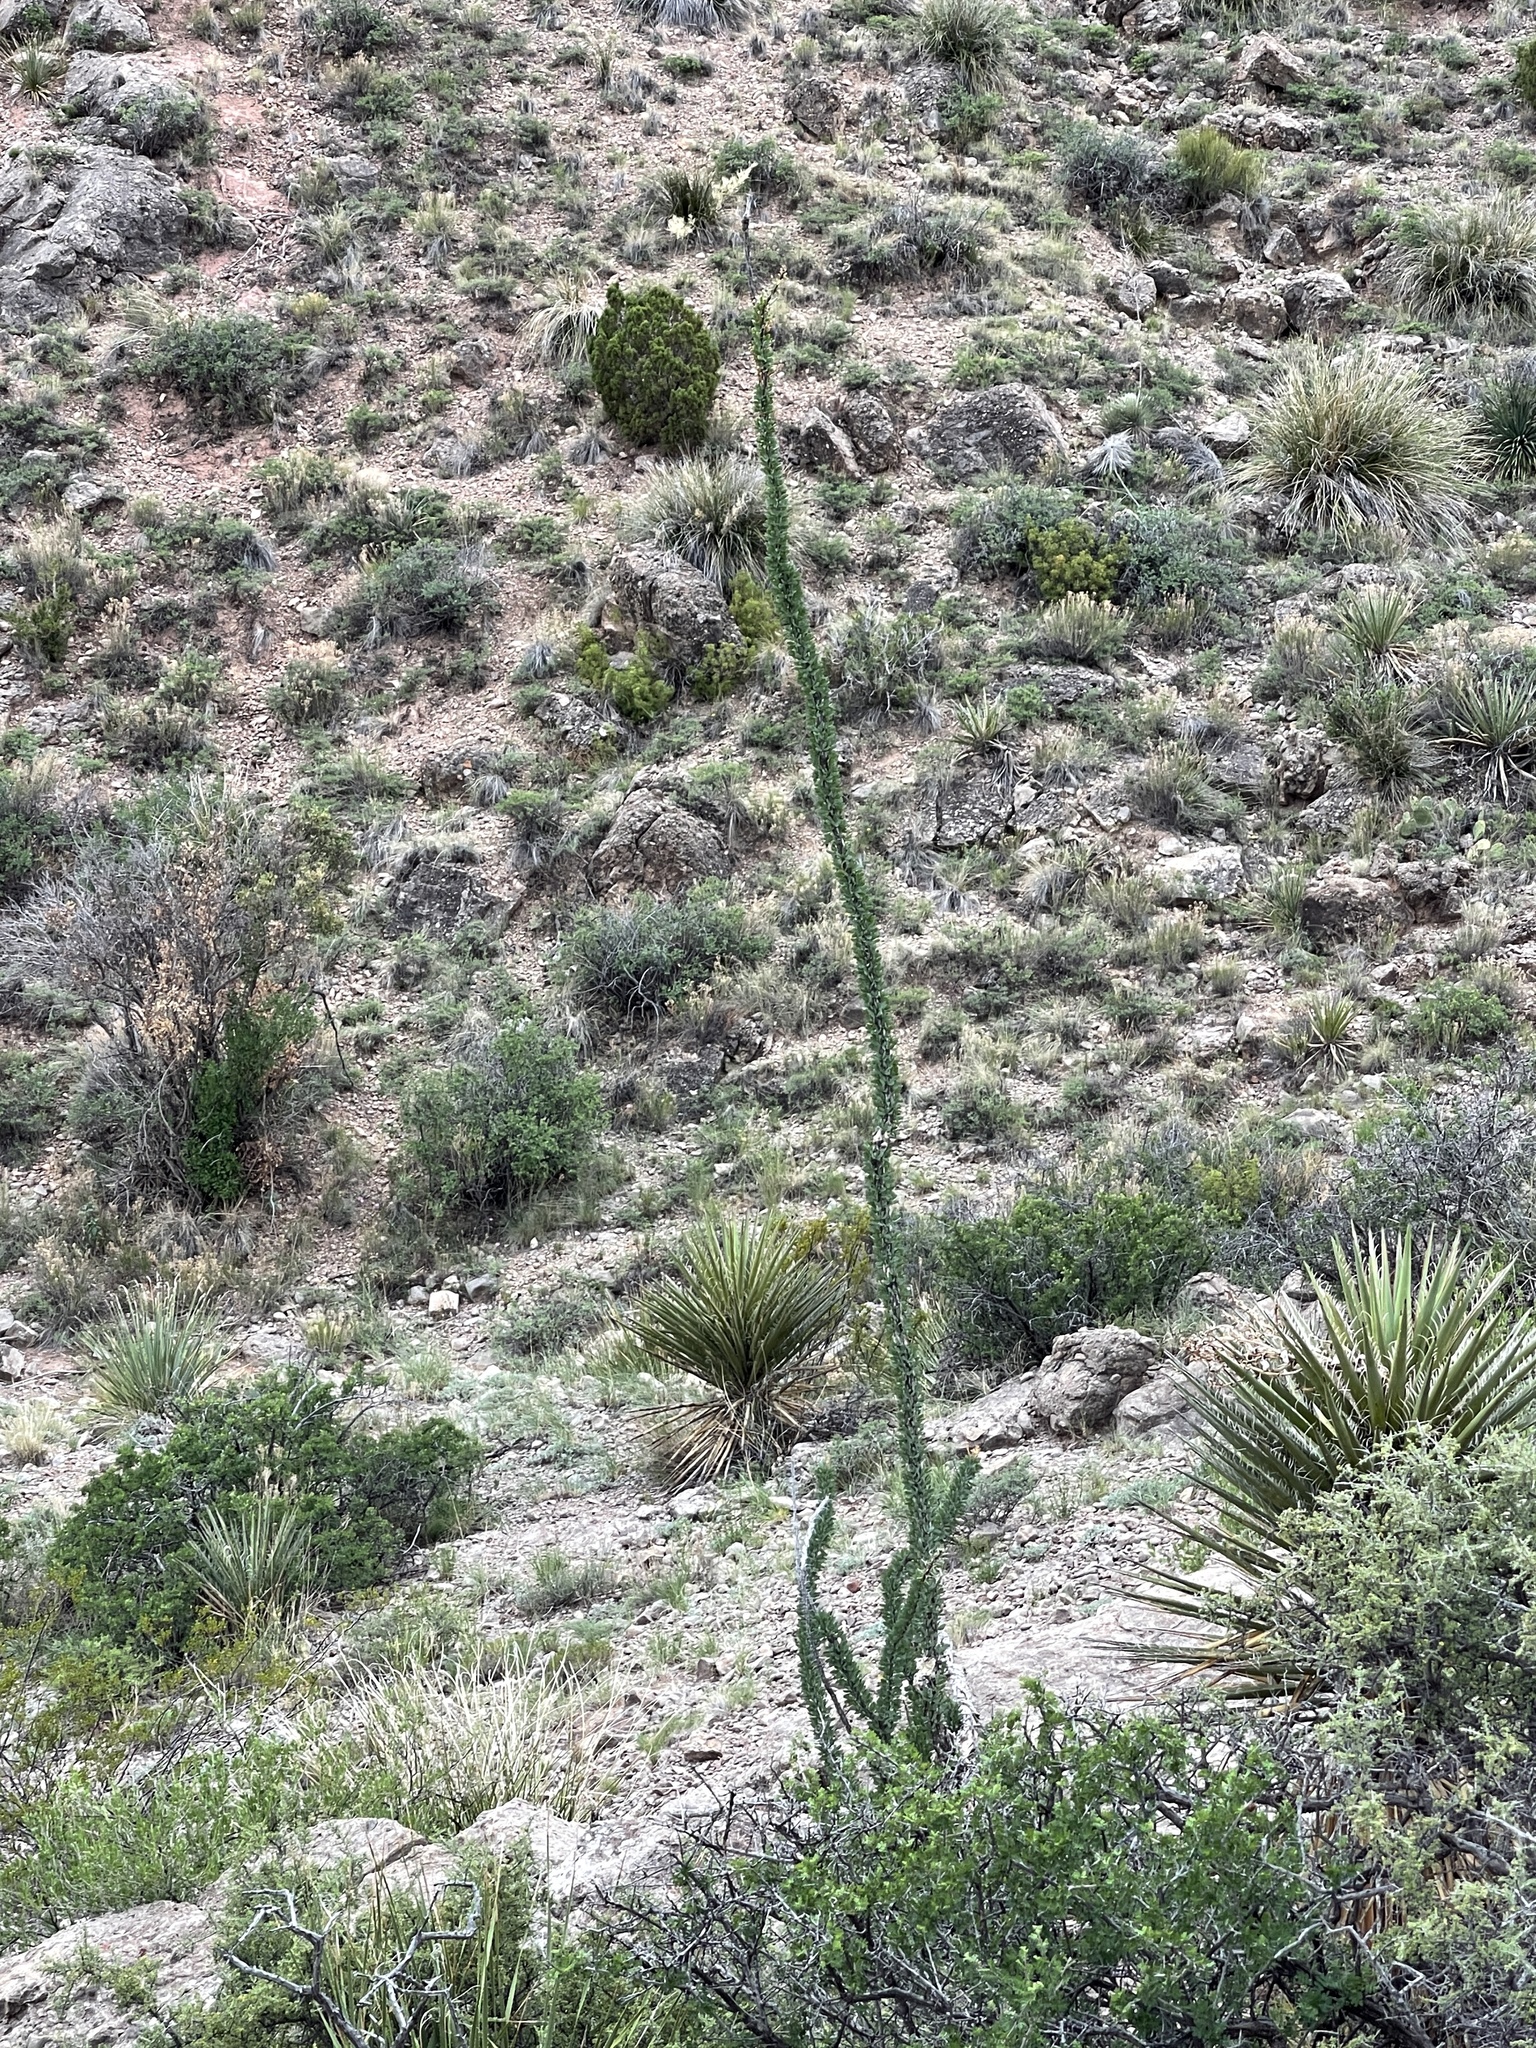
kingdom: Plantae
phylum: Tracheophyta
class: Magnoliopsida
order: Ericales
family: Fouquieriaceae
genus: Fouquieria
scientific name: Fouquieria splendens
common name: Vine-cactus
